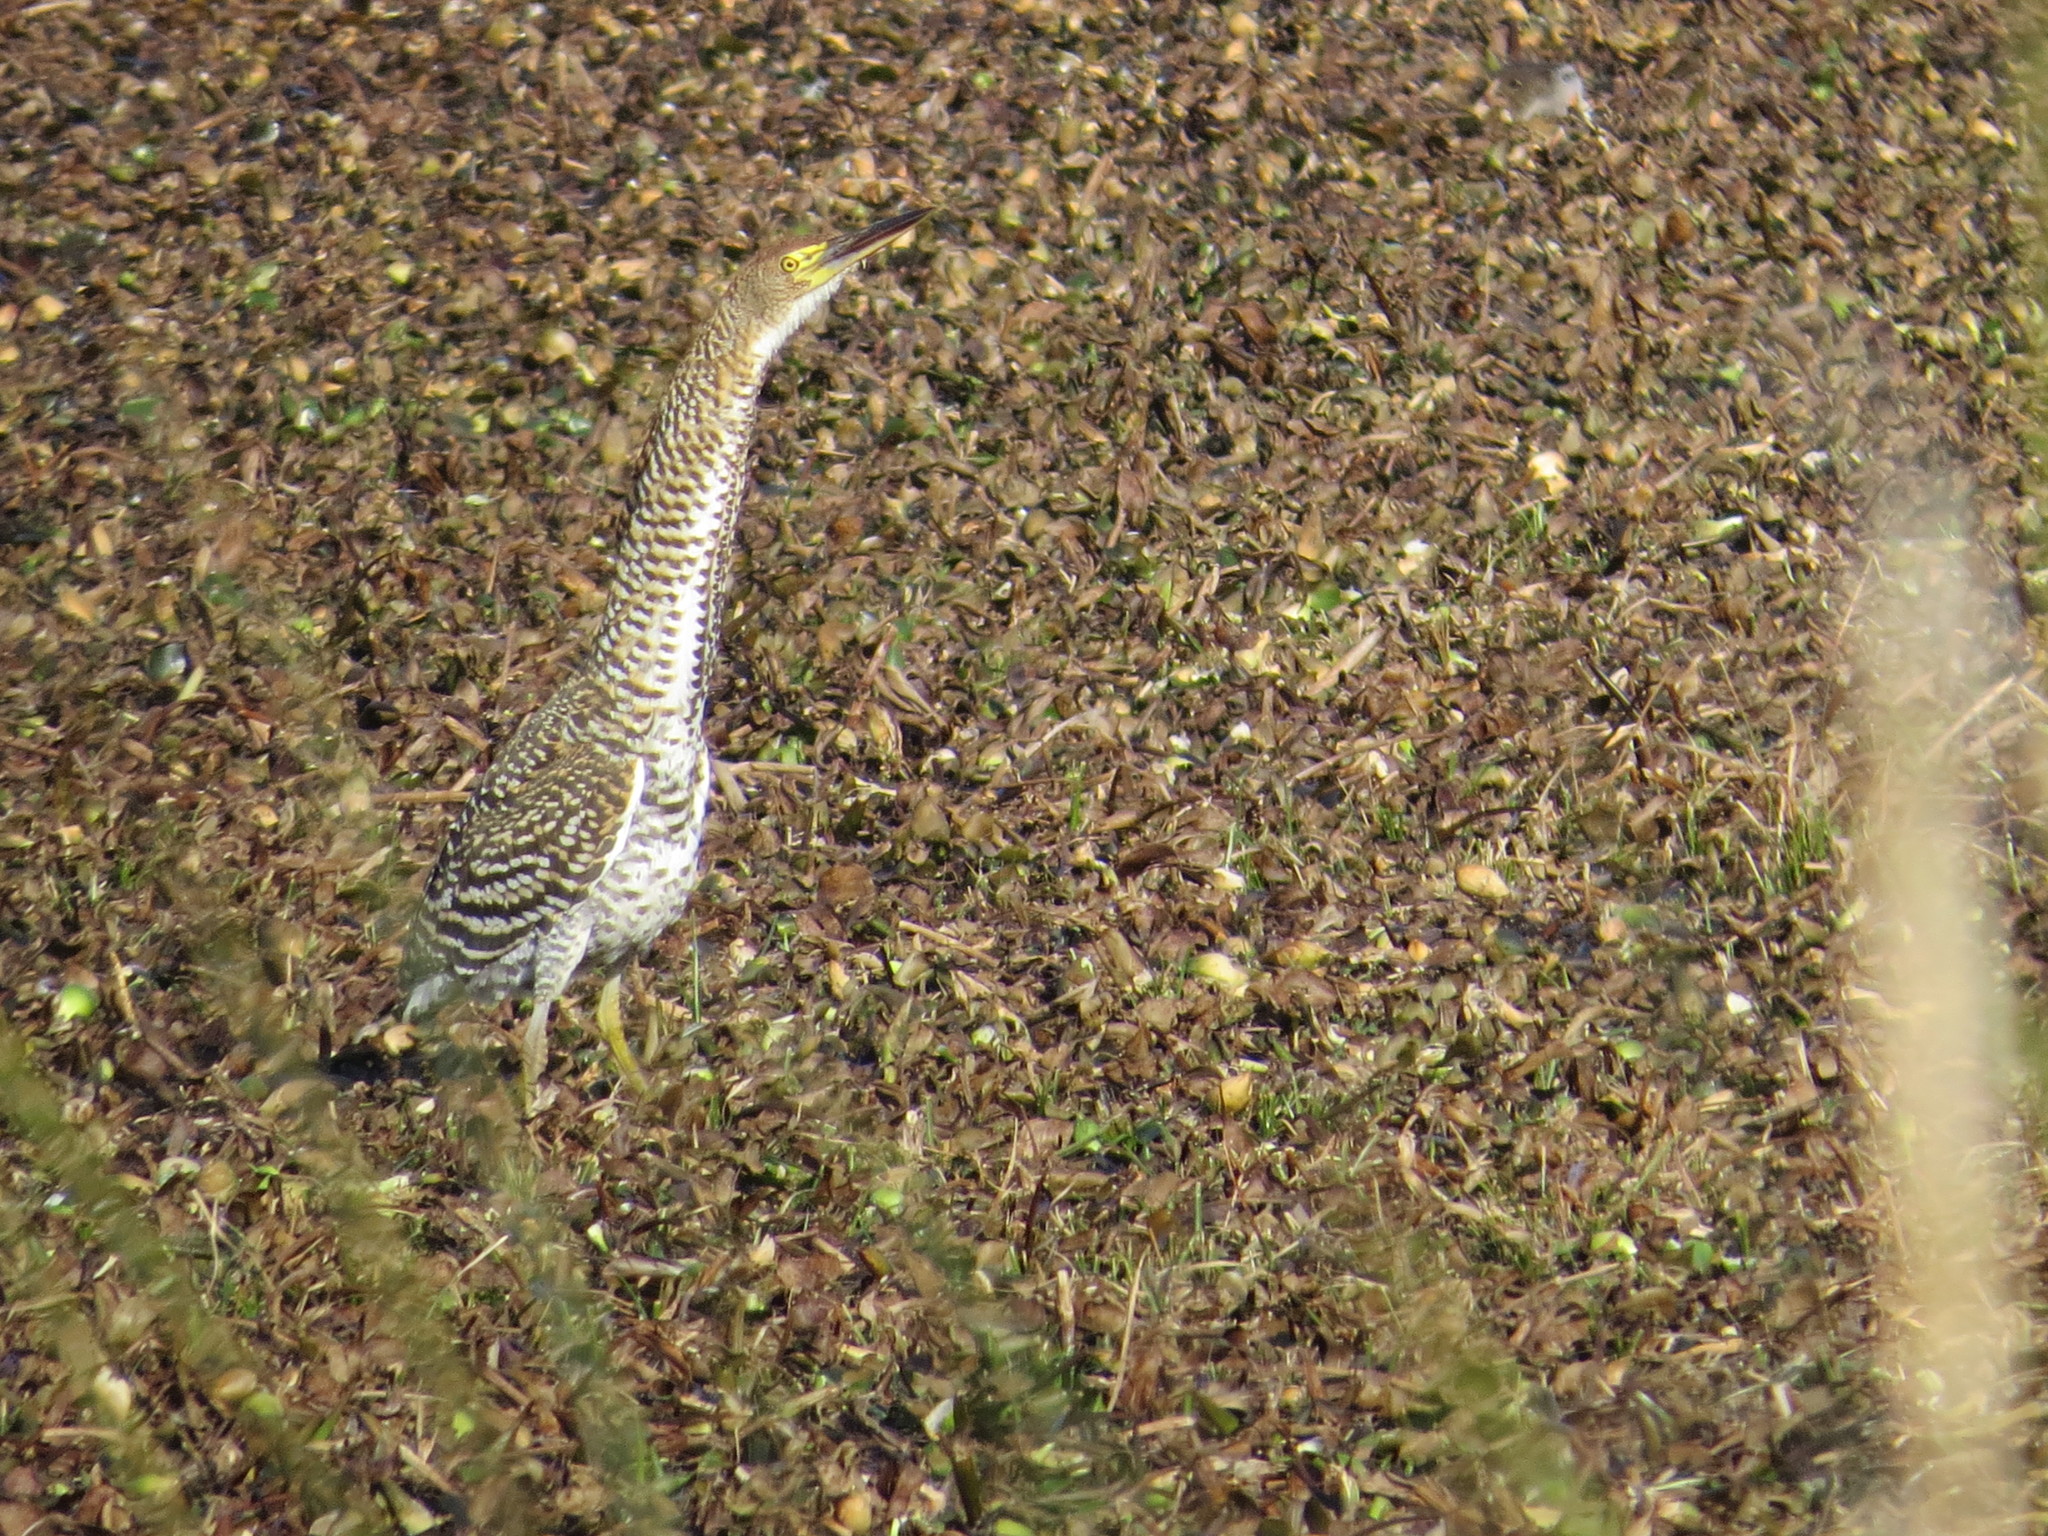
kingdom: Animalia
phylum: Chordata
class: Aves
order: Pelecaniformes
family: Ardeidae
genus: Tigrisoma
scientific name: Tigrisoma lineatum
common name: Rufescent tiger-heron
